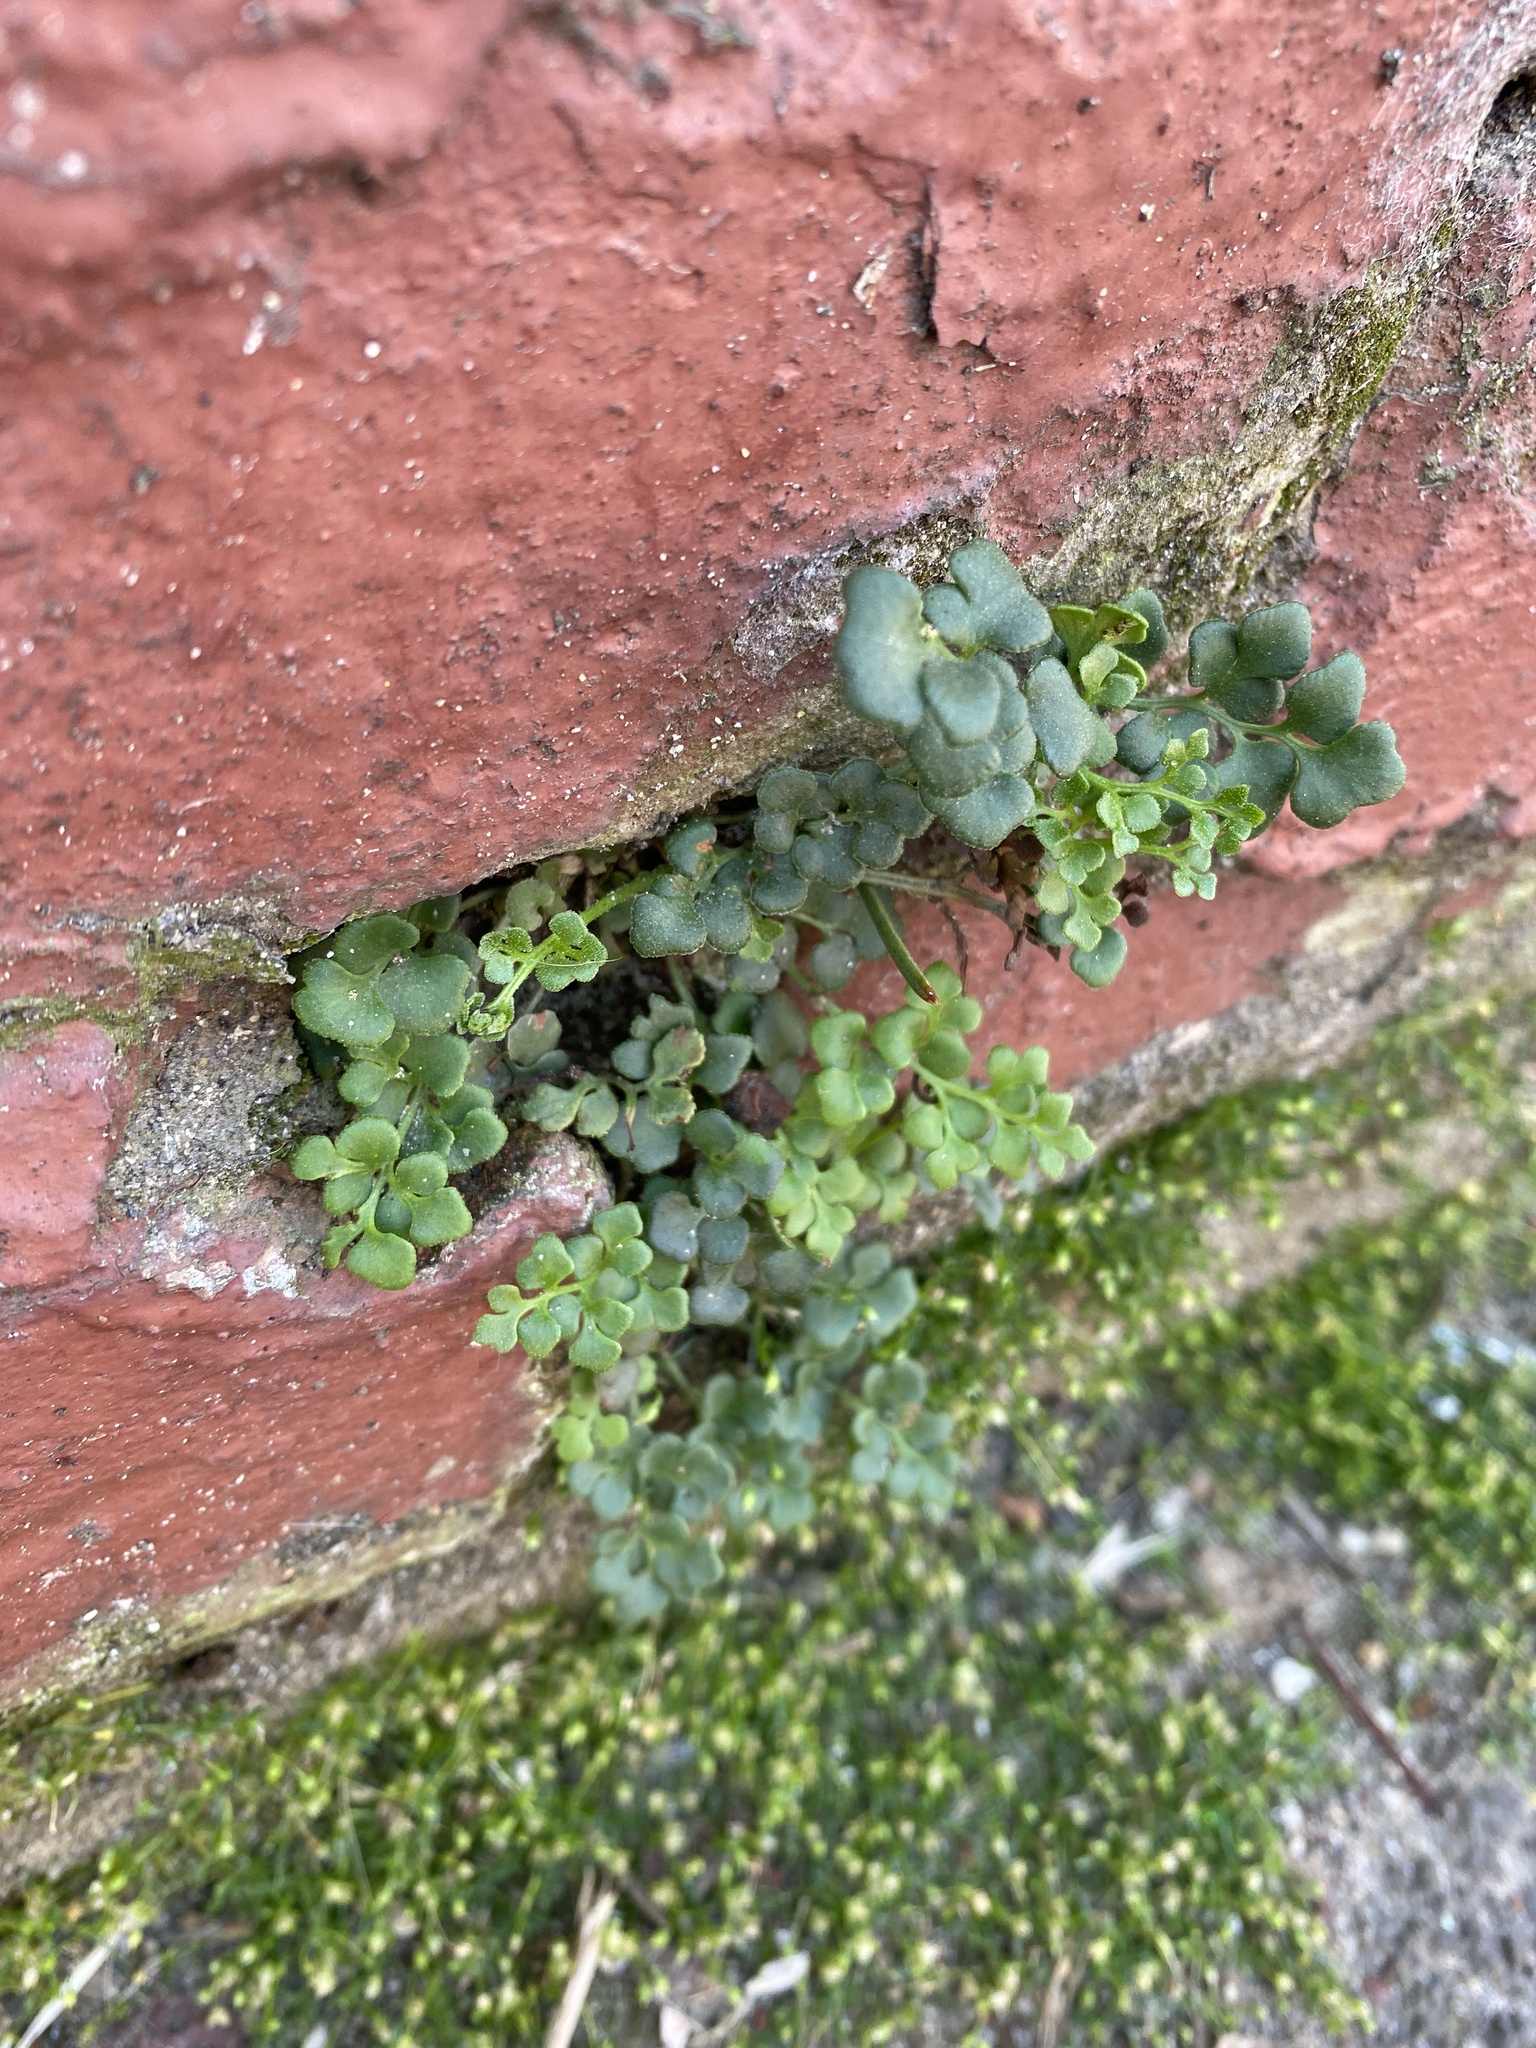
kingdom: Plantae
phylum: Tracheophyta
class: Polypodiopsida
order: Polypodiales
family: Aspleniaceae
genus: Asplenium
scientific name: Asplenium ruta-muraria
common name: Wall-rue
